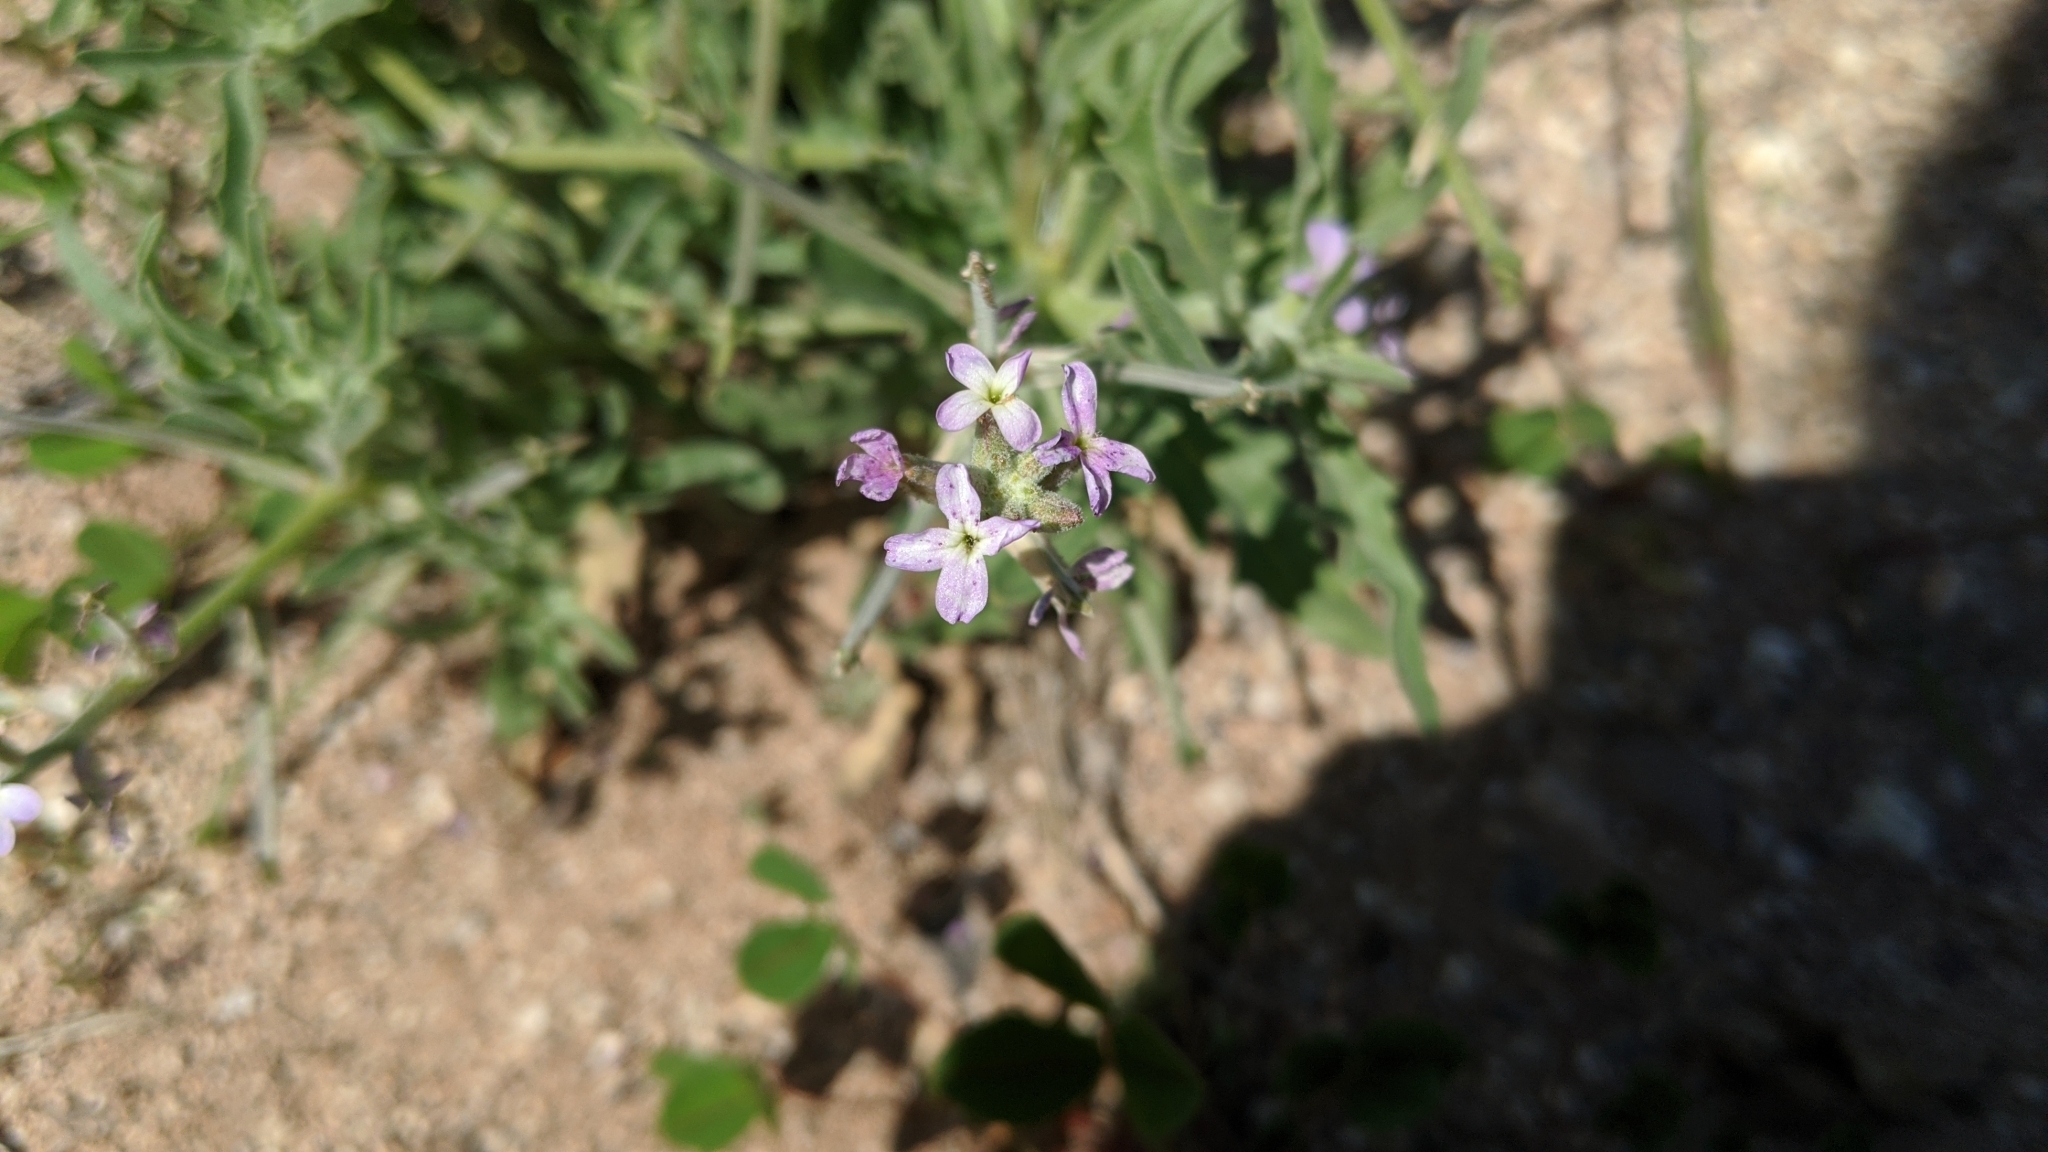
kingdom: Plantae
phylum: Tracheophyta
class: Magnoliopsida
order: Brassicales
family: Brassicaceae
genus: Matthiola
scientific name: Matthiola parviflora
